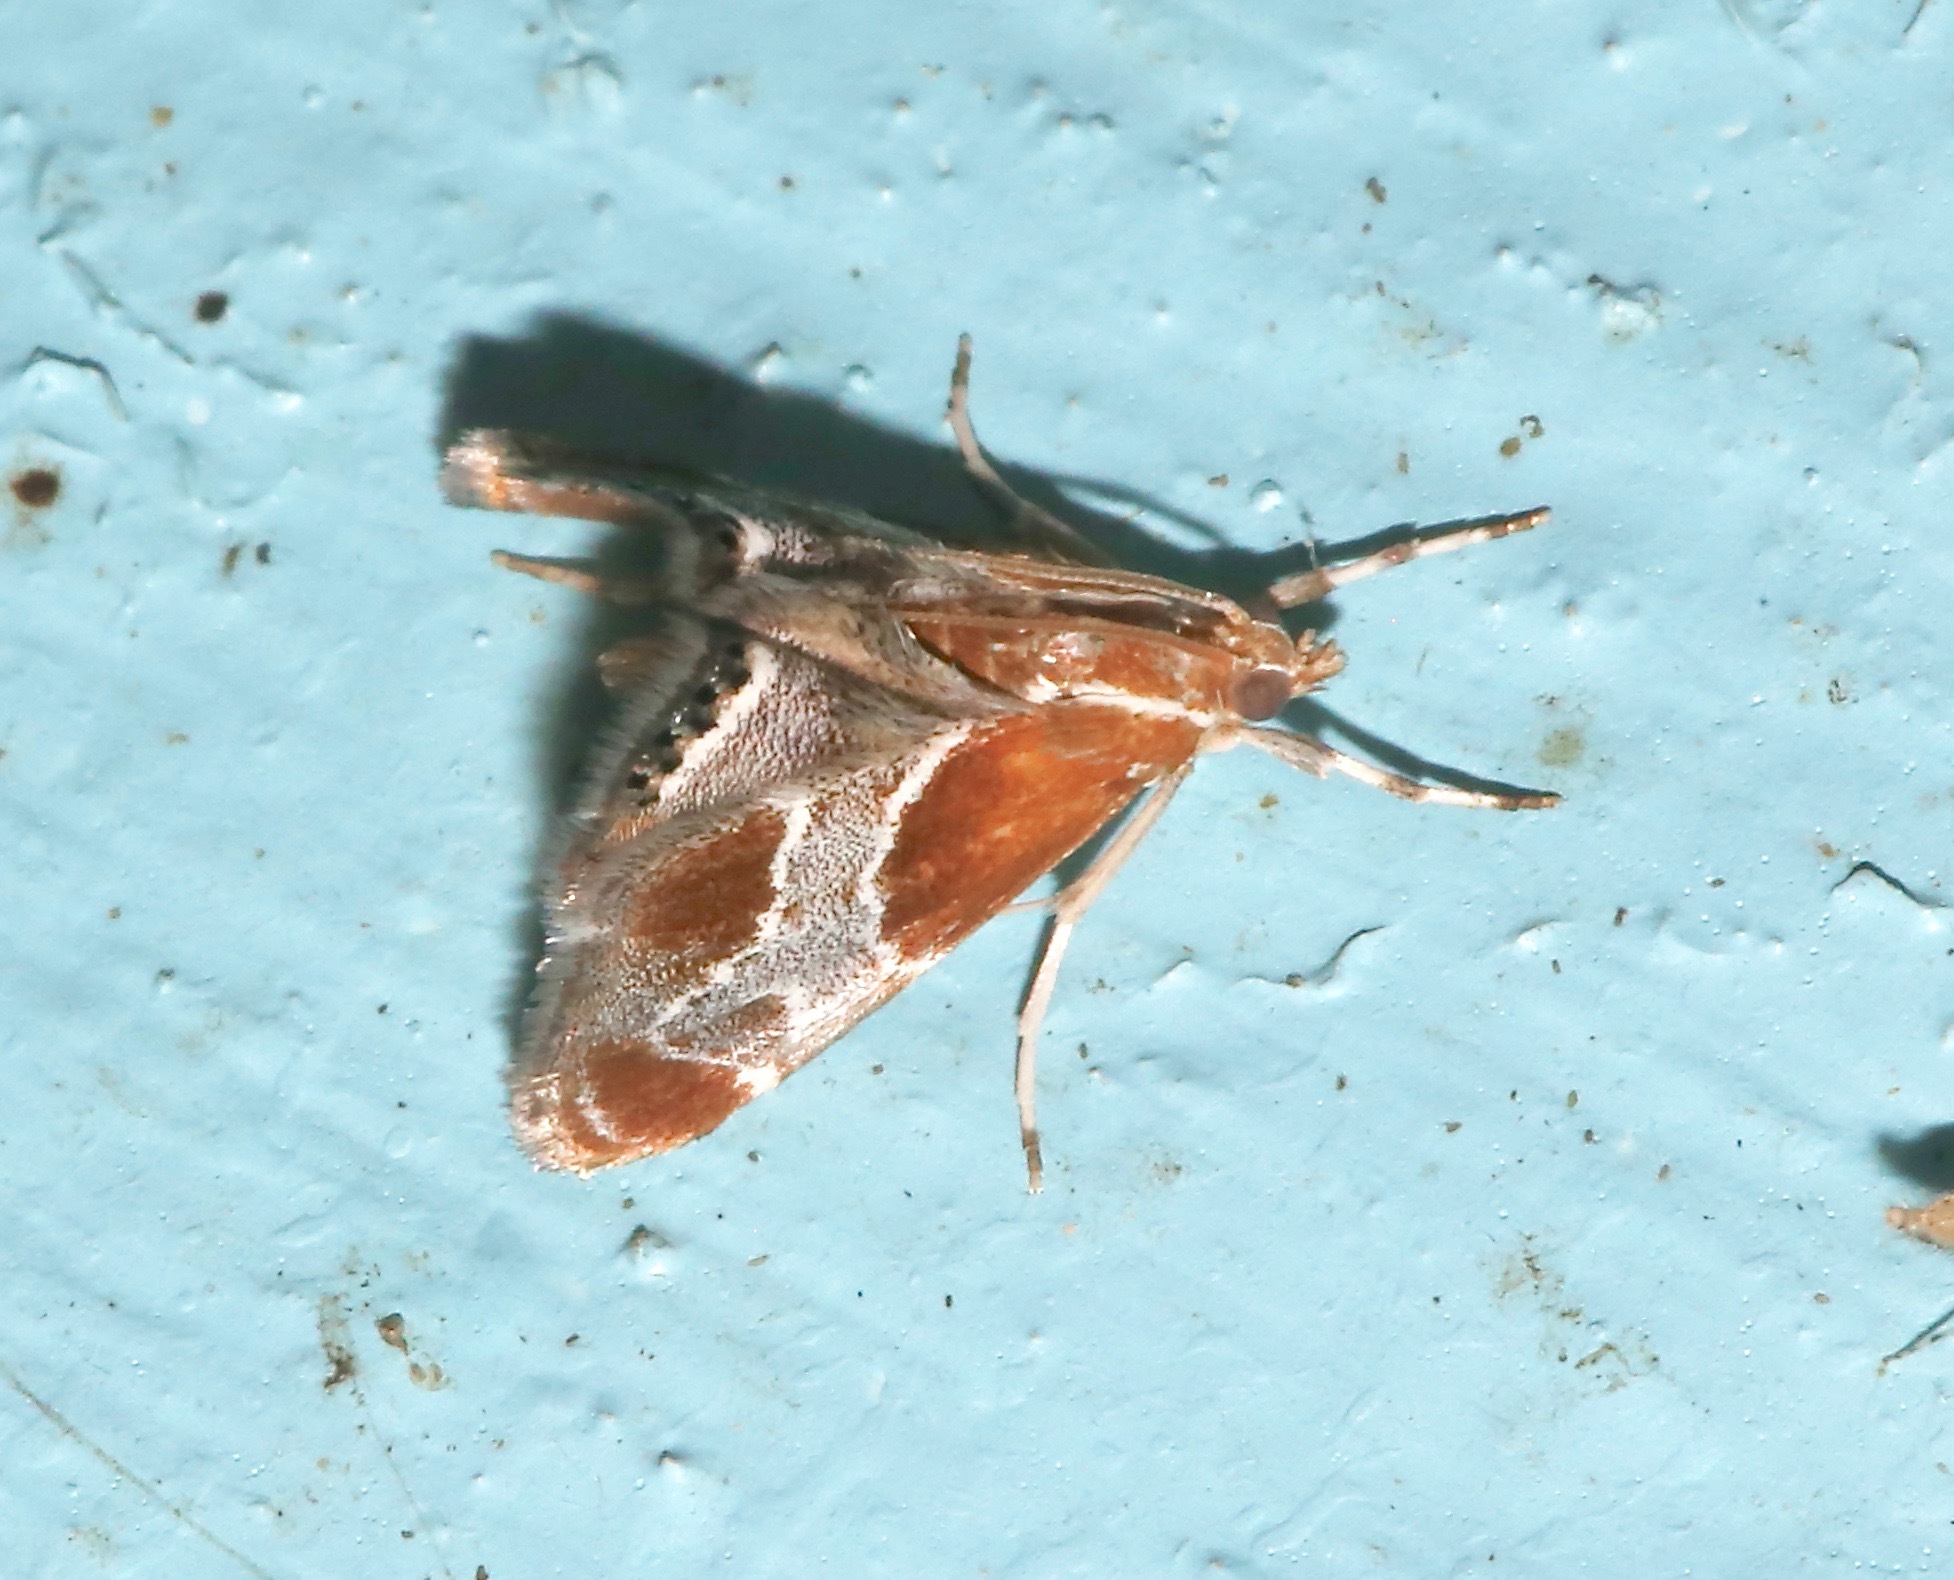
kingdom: Animalia
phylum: Arthropoda
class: Insecta
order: Lepidoptera
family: Crambidae
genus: Chalcoela
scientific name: Chalcoela pegasalis
